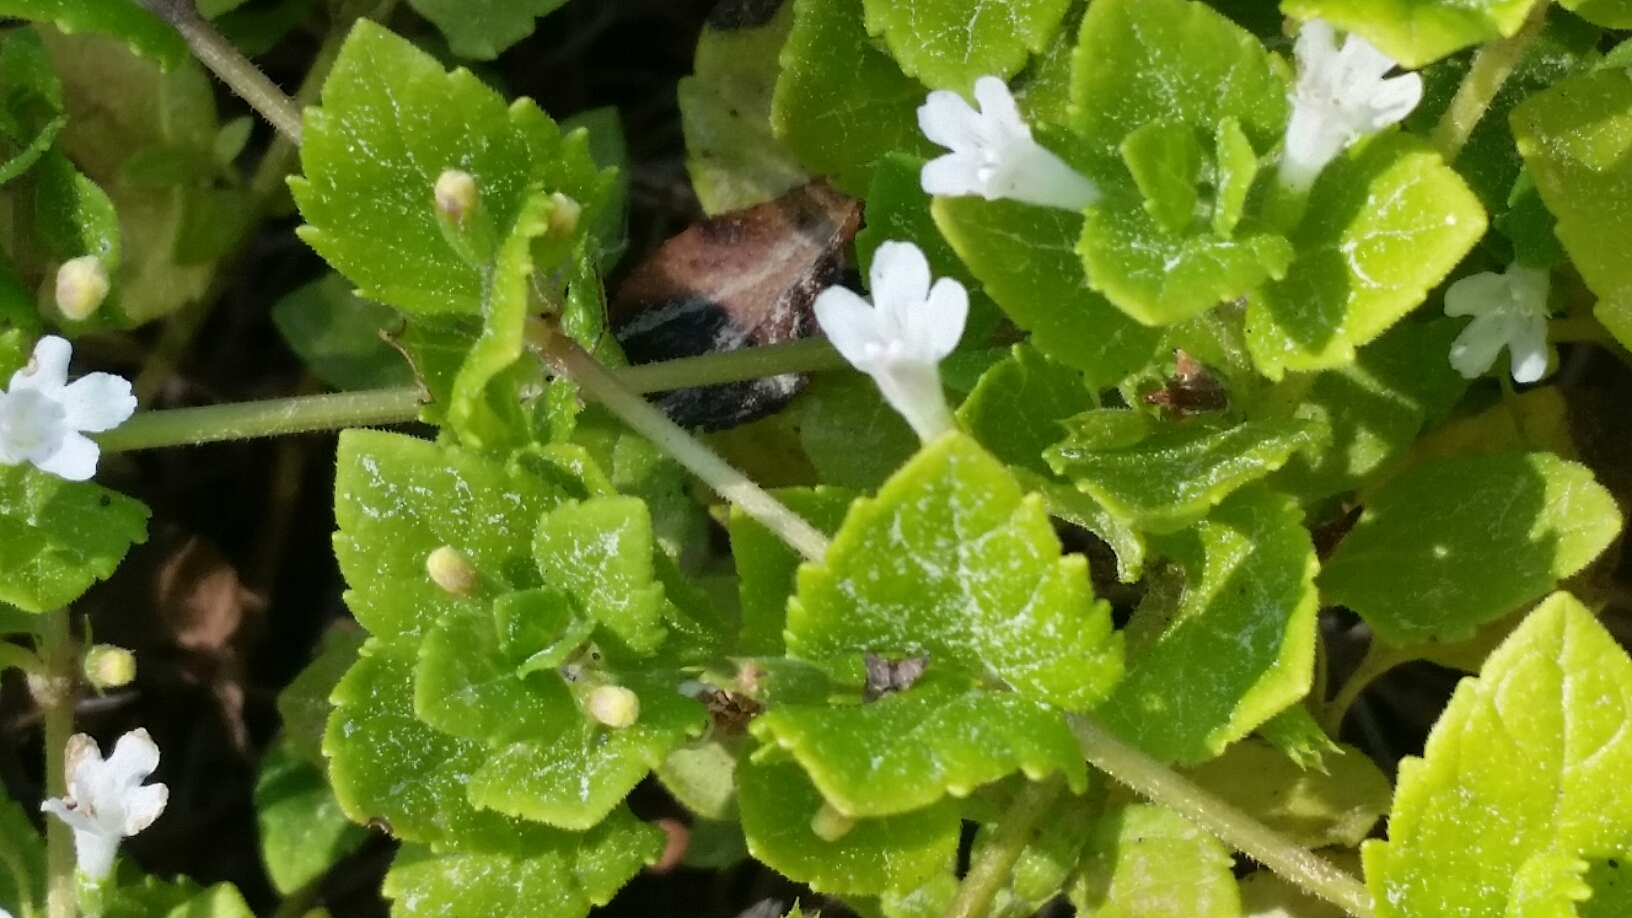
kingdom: Plantae
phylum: Tracheophyta
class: Magnoliopsida
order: Lamiales
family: Lamiaceae
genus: Micromeria
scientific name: Micromeria douglasii
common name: Yerba buena
